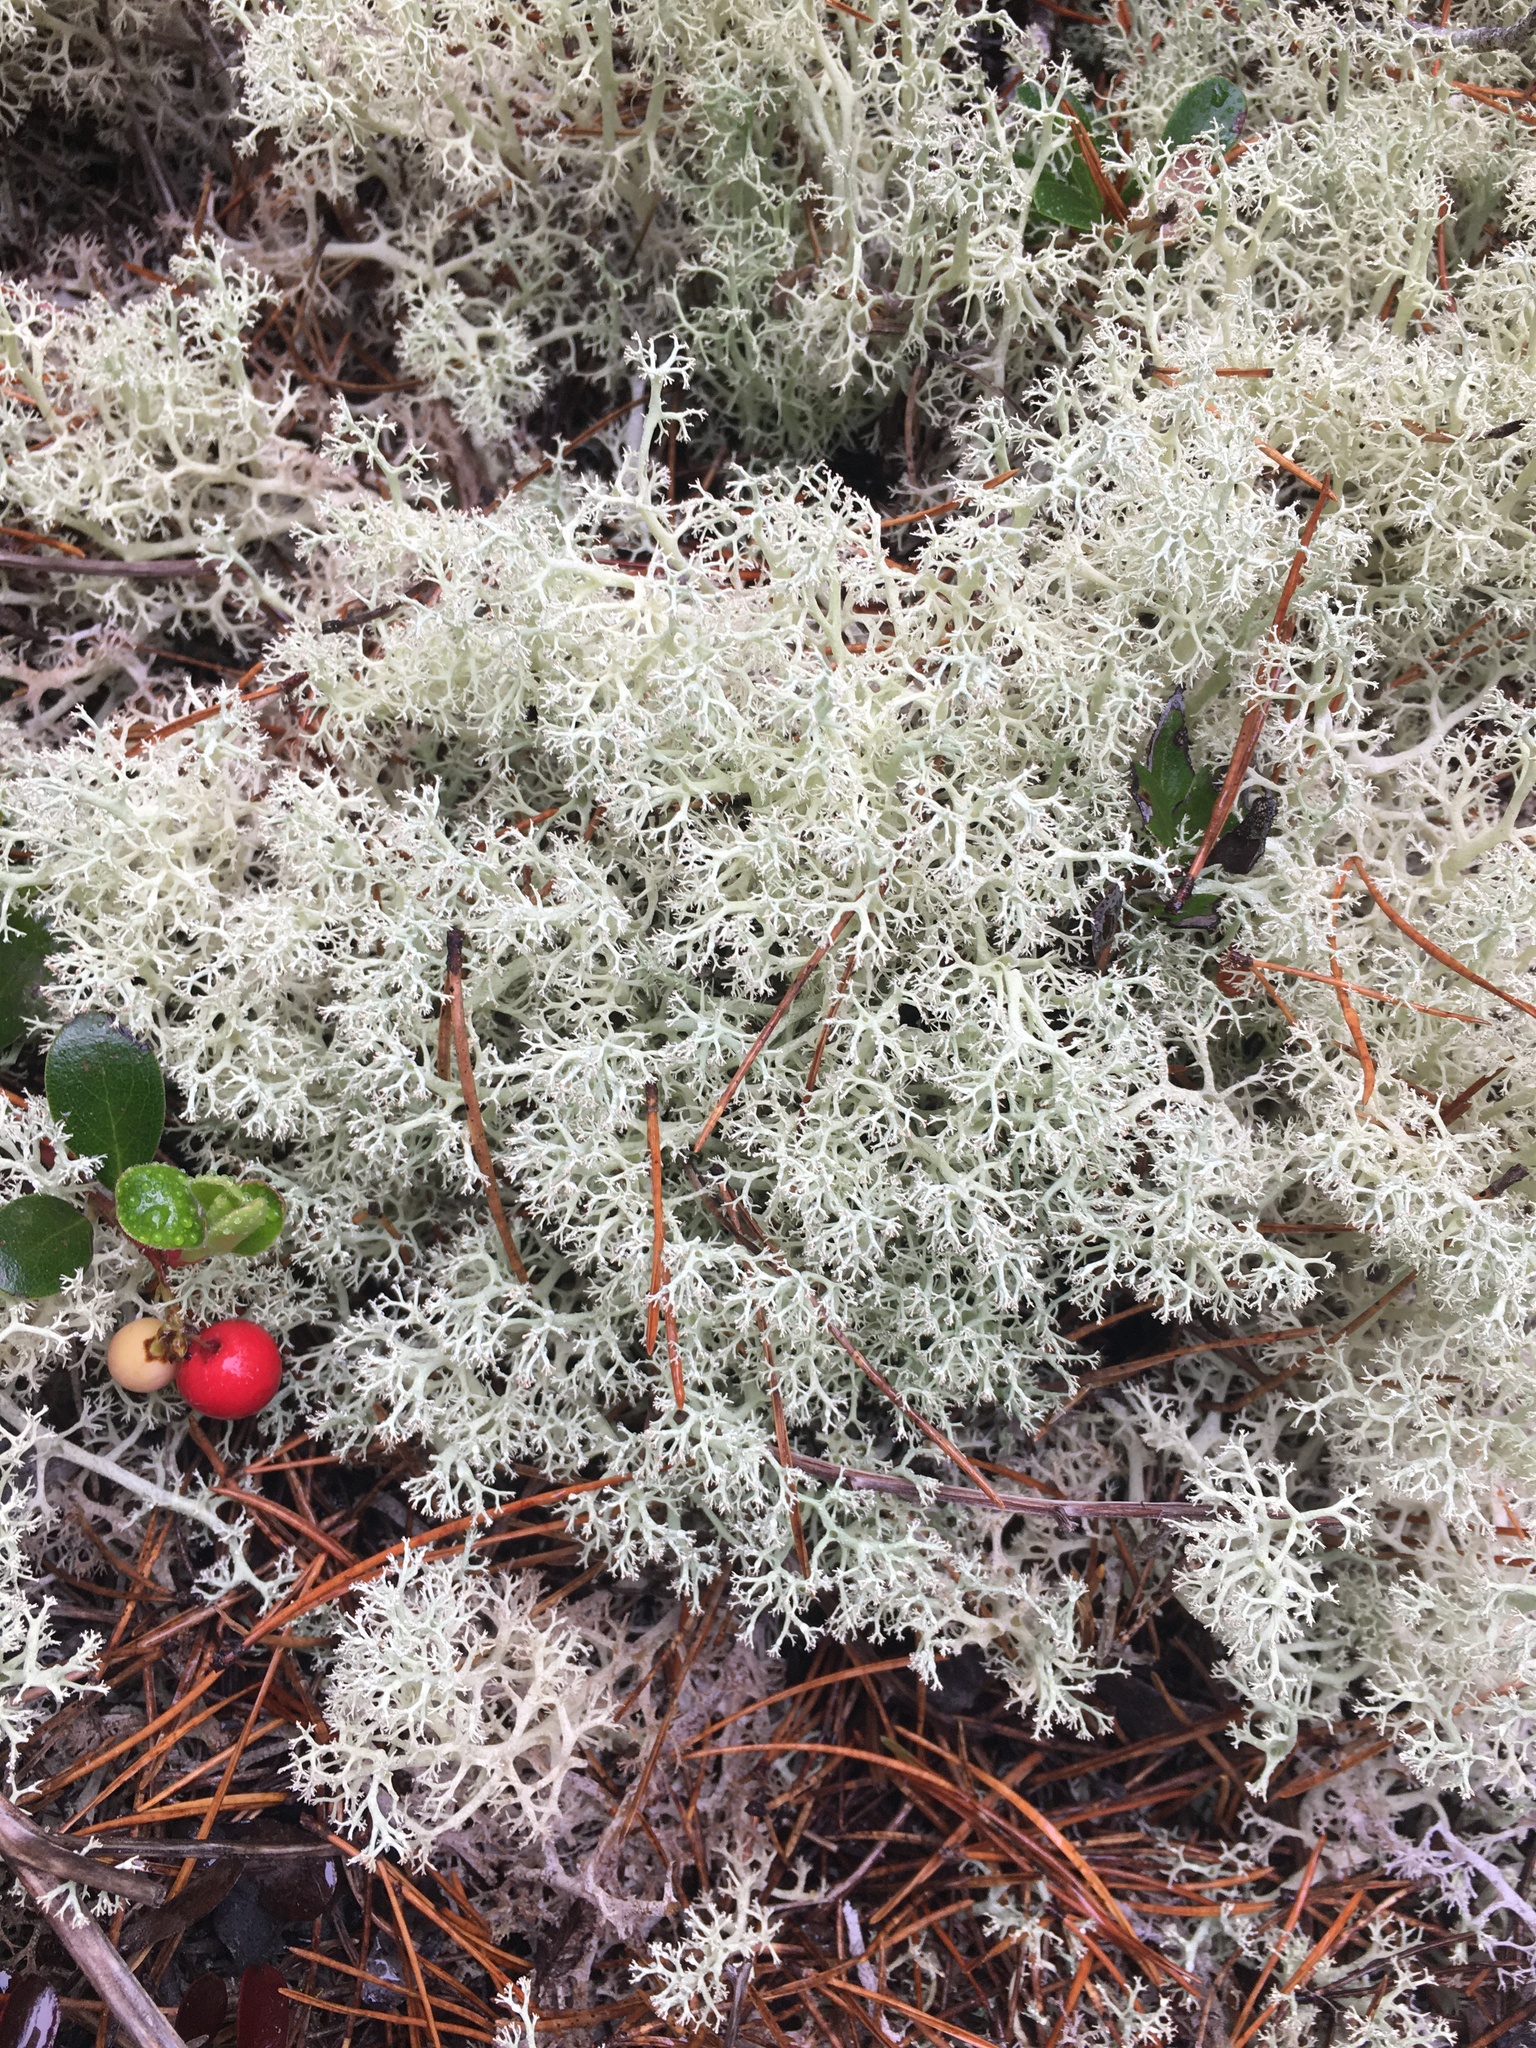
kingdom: Fungi
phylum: Ascomycota
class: Lecanoromycetes
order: Lecanorales
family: Cladoniaceae
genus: Cladonia
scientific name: Cladonia portentosa
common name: Reindeer lichen
